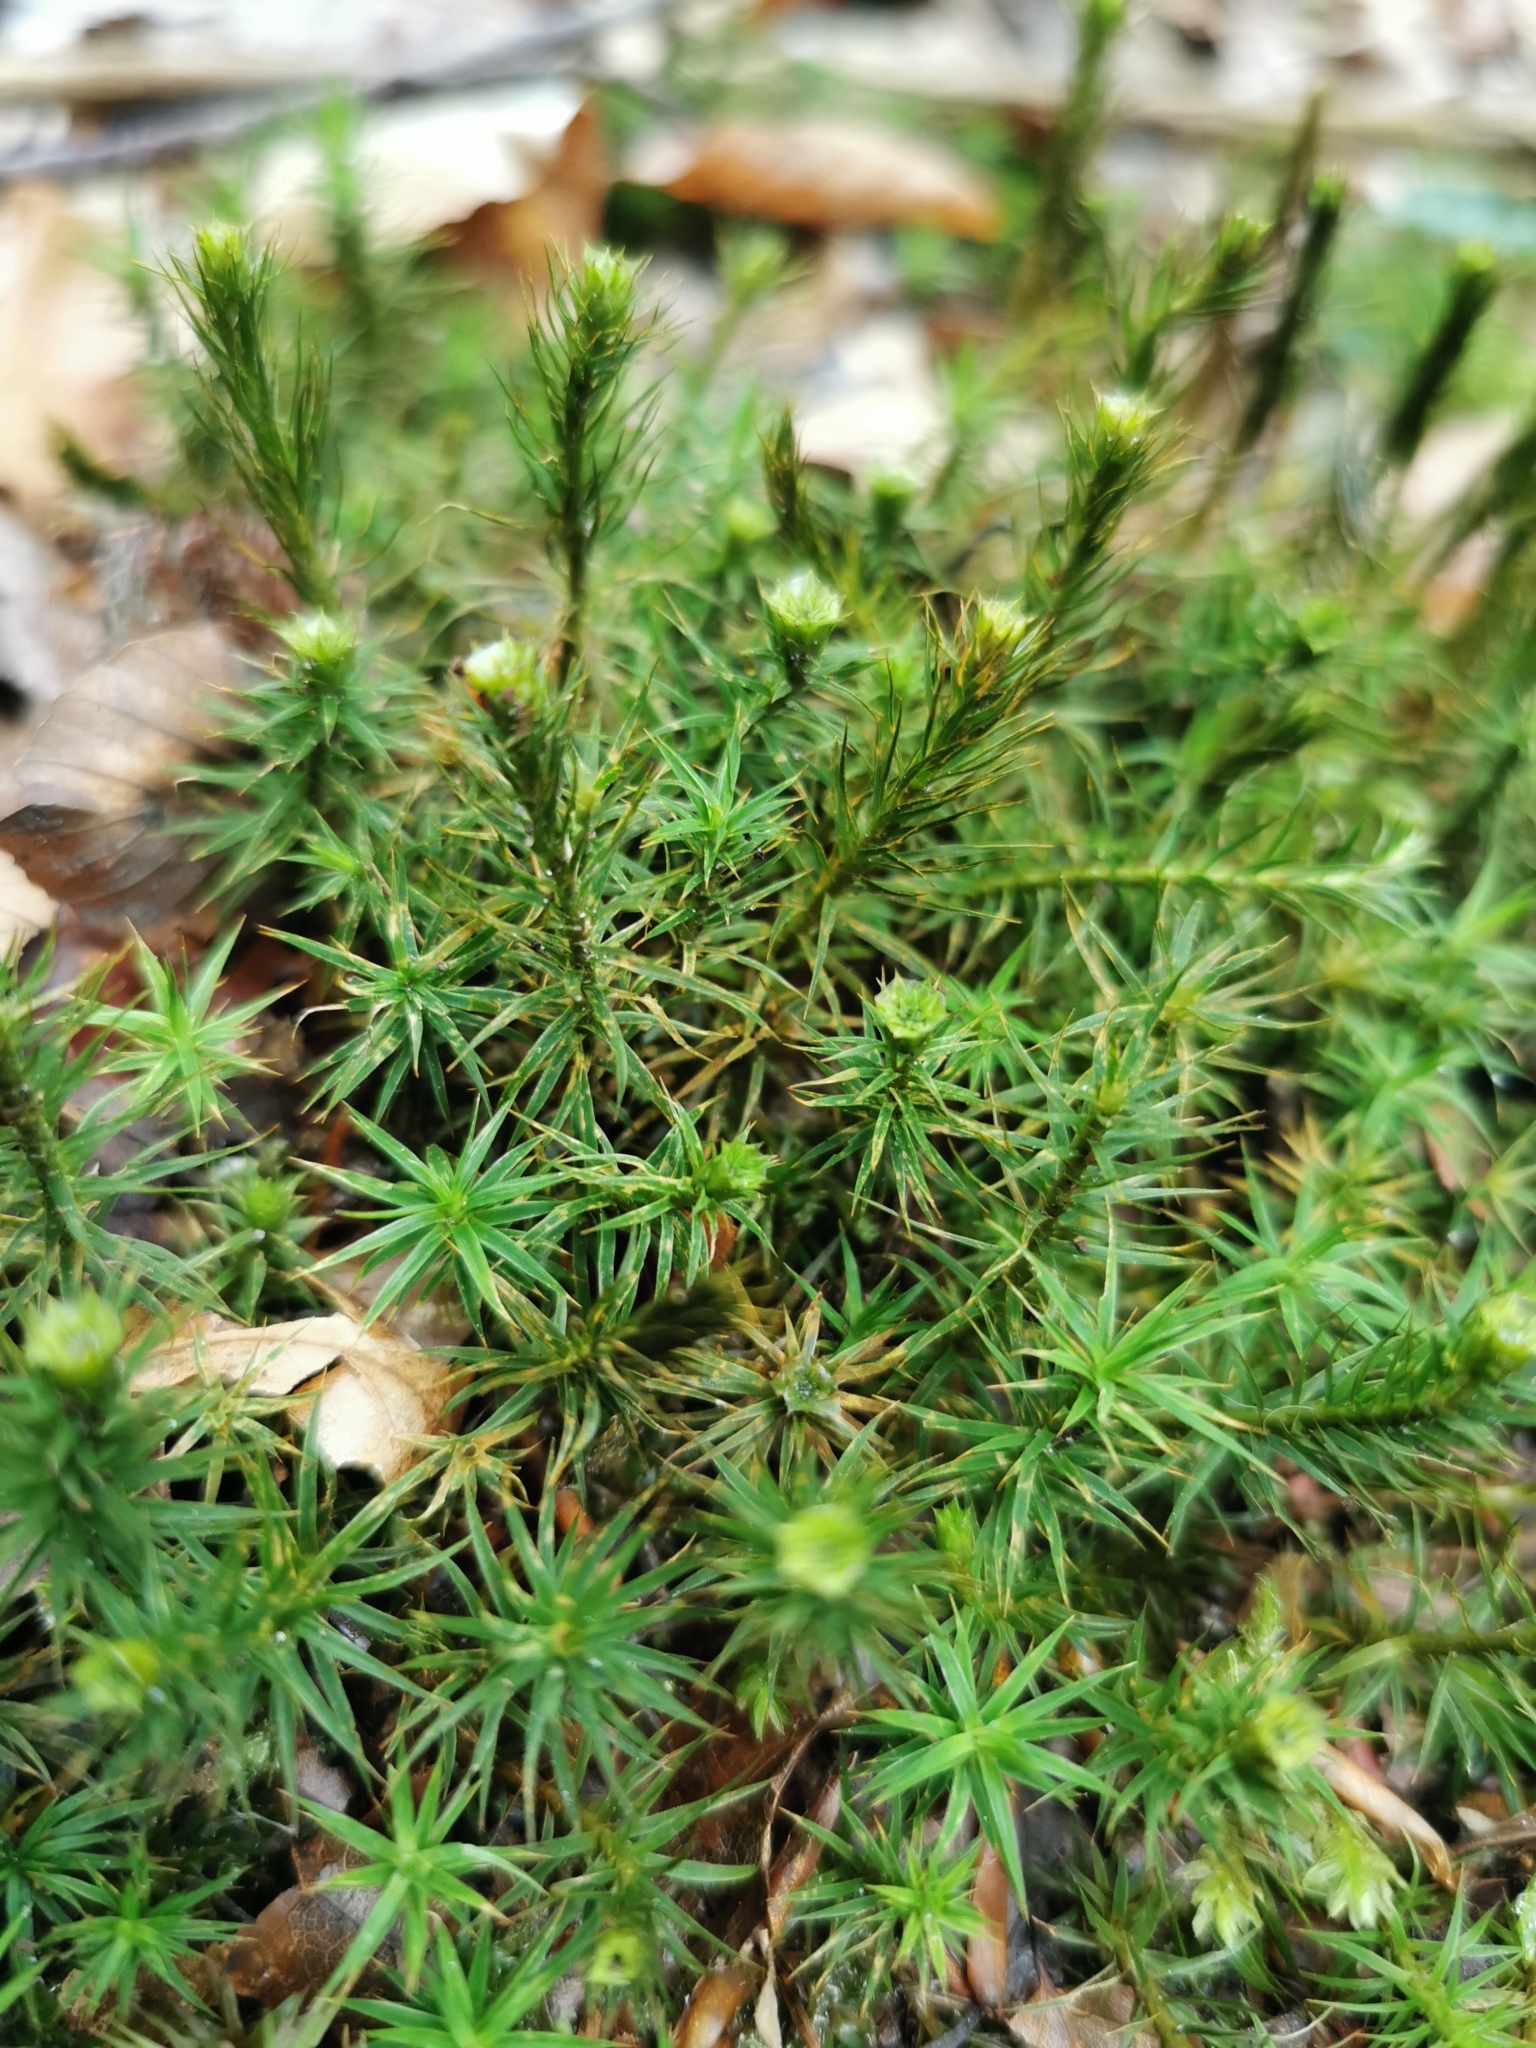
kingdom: Plantae
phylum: Bryophyta
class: Polytrichopsida
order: Polytrichales
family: Polytrichaceae
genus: Polytrichum
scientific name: Polytrichum formosum
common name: Bank haircap moss
